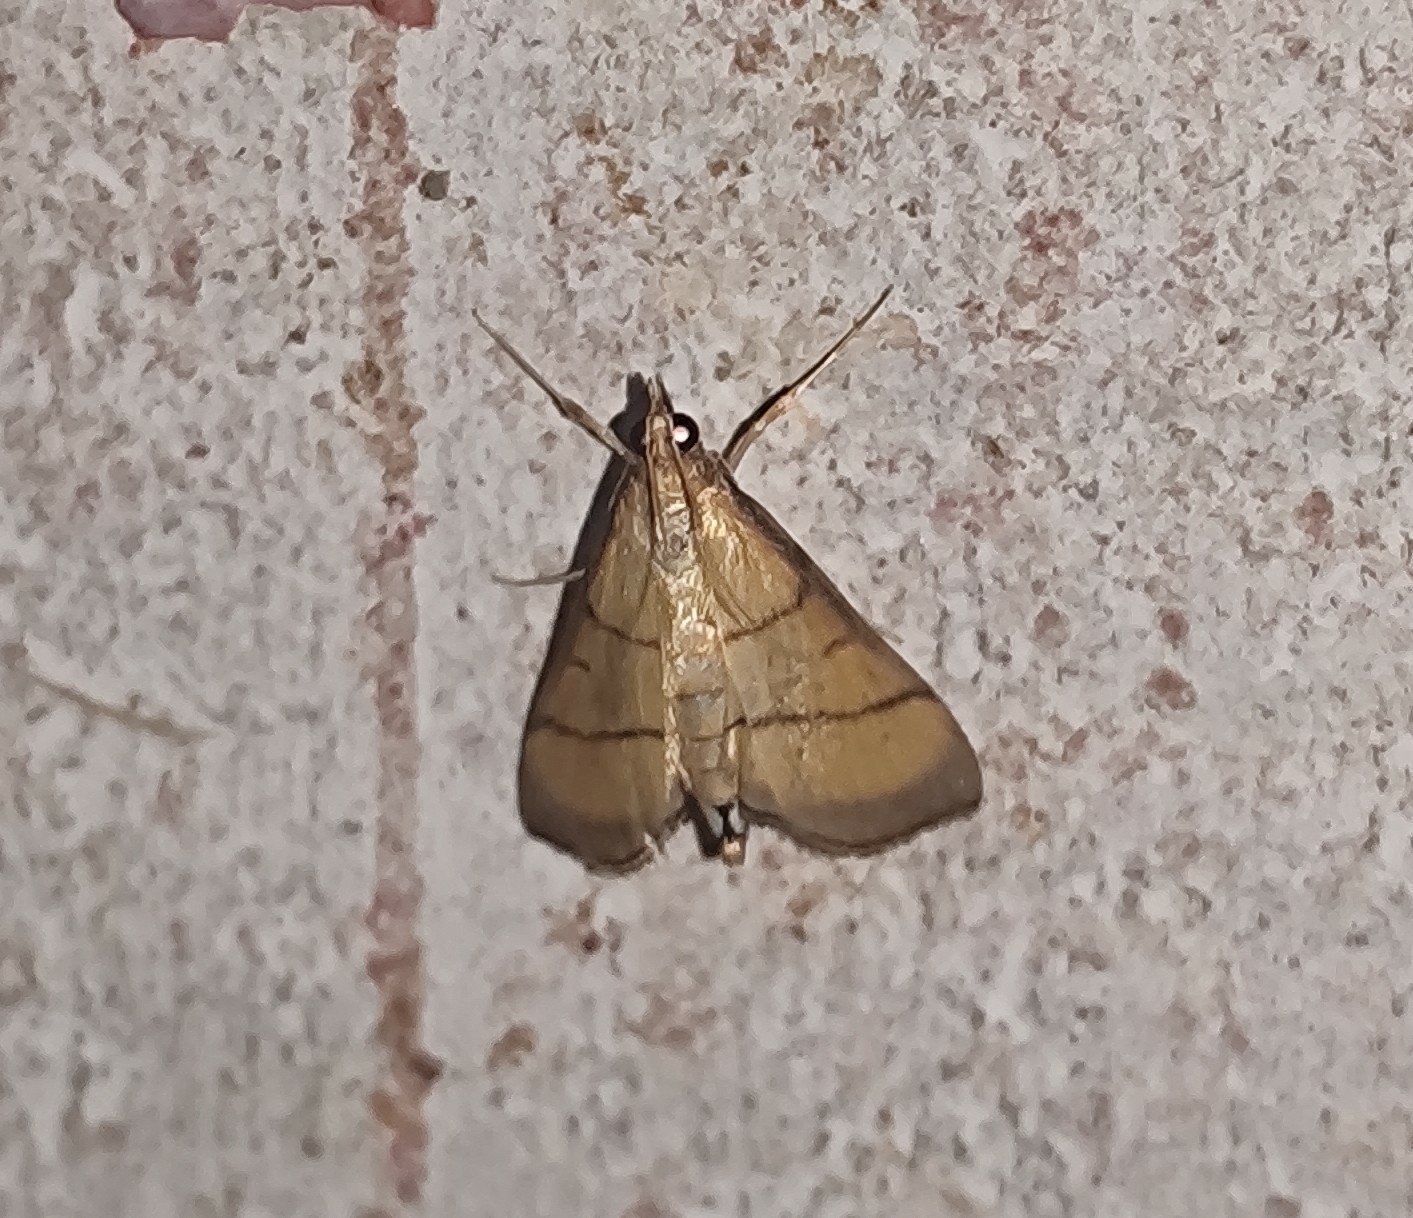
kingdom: Animalia
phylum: Arthropoda
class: Insecta
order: Lepidoptera
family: Crambidae
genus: Cnaphalocrocis
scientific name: Cnaphalocrocis medinalis
